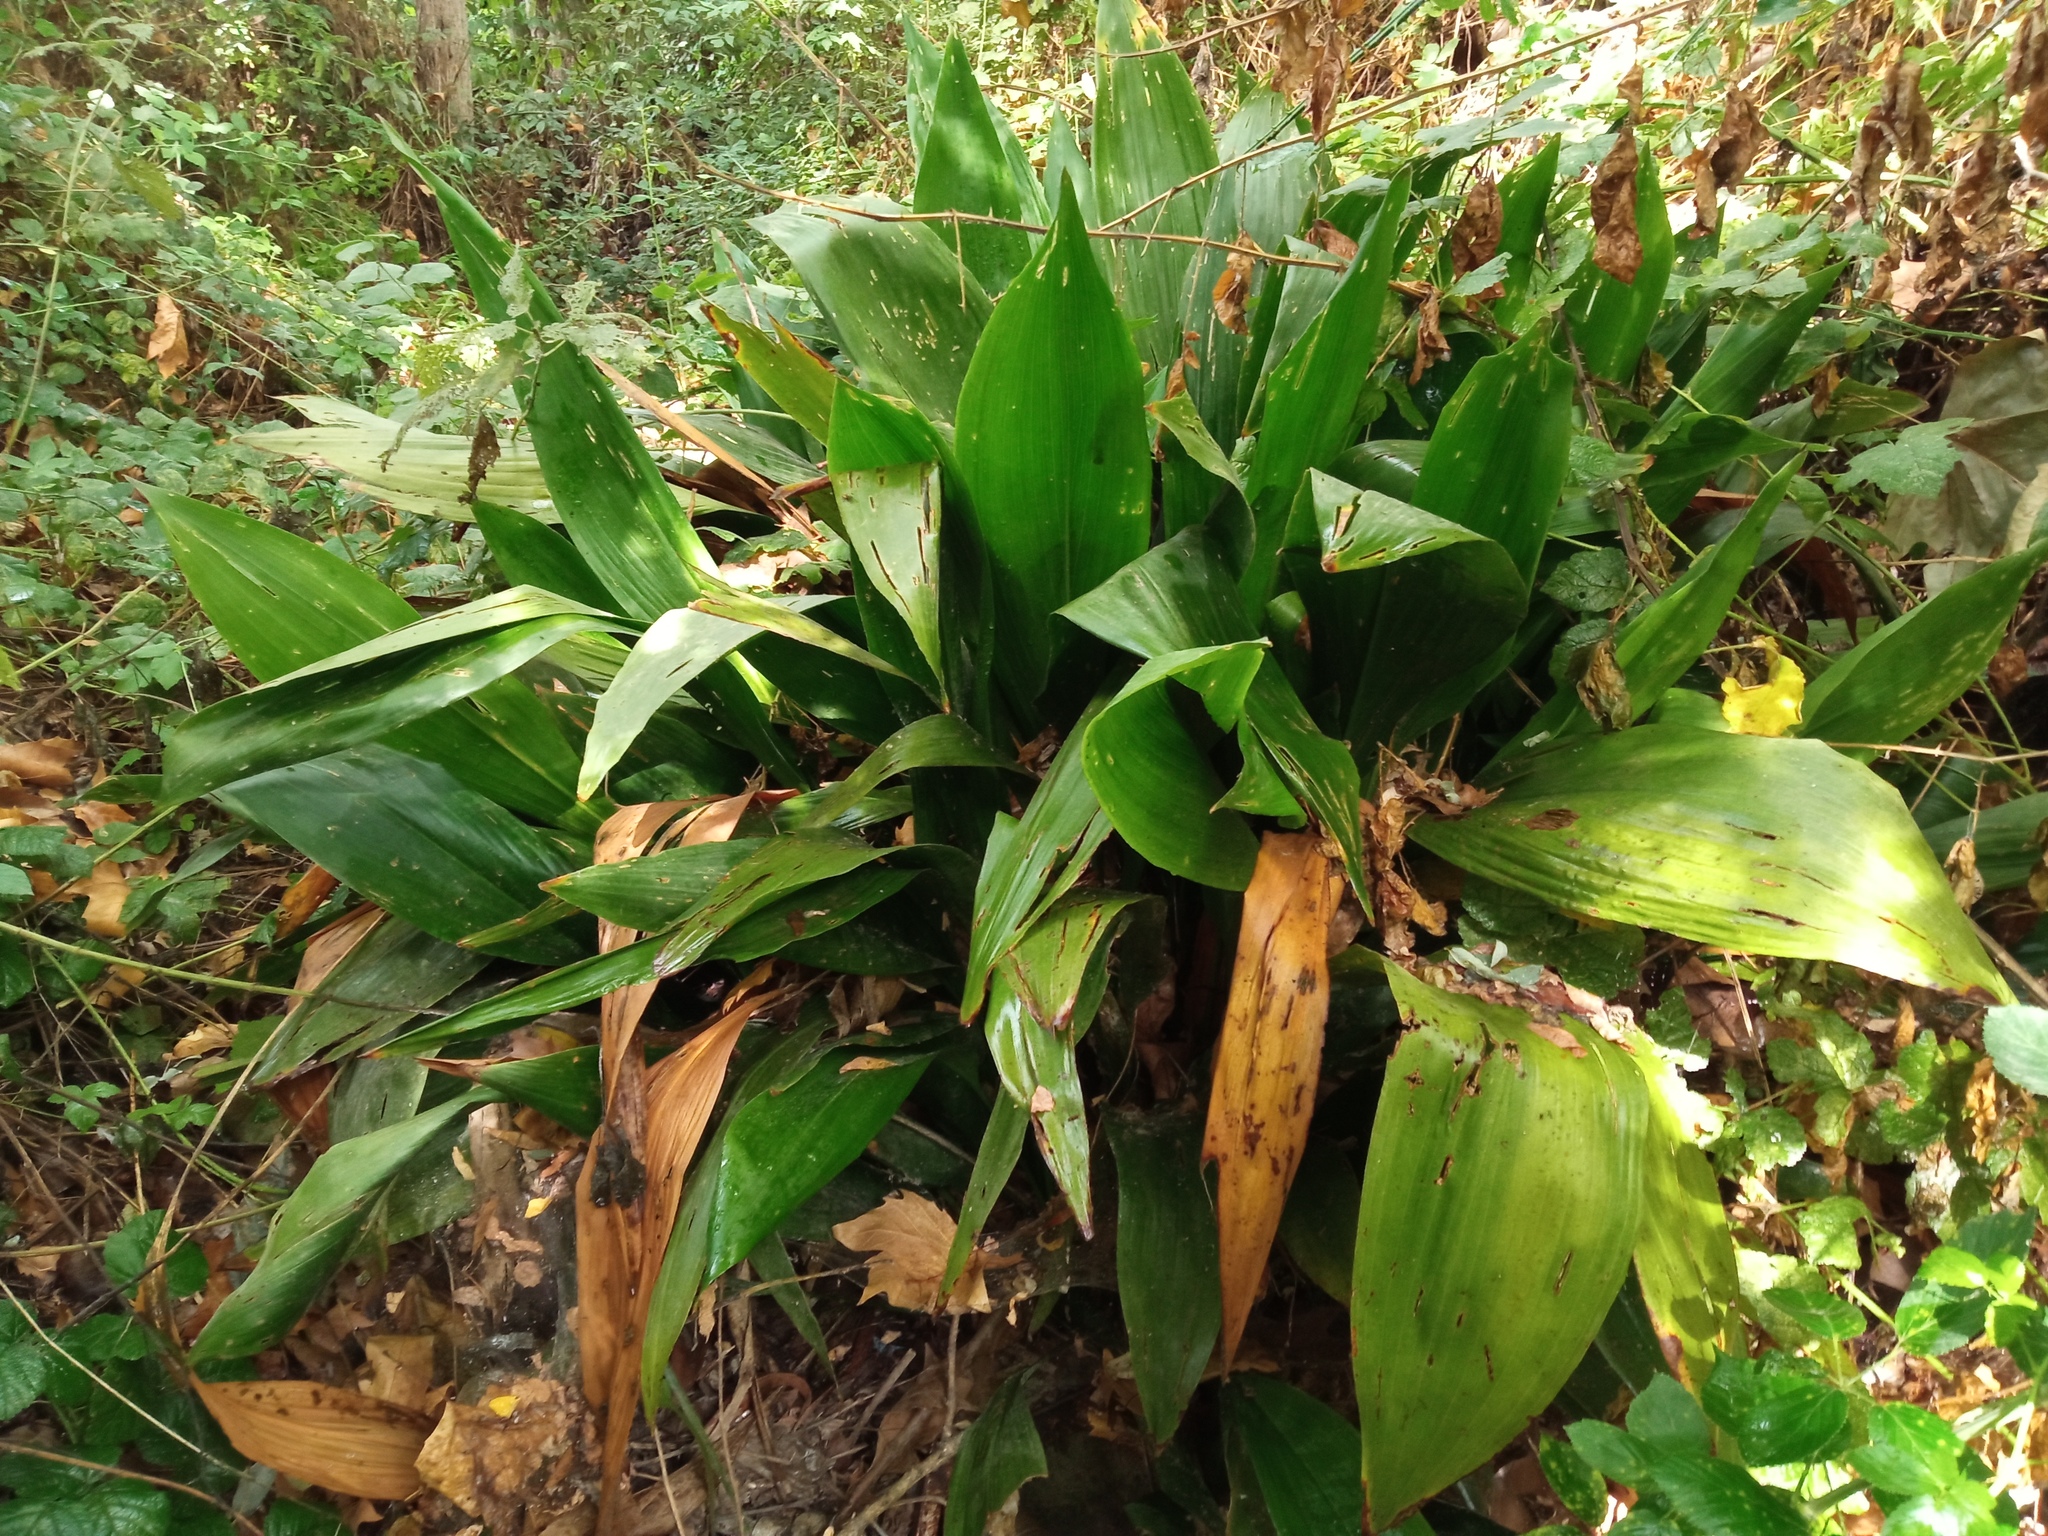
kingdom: Plantae
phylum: Tracheophyta
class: Liliopsida
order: Asparagales
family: Asparagaceae
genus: Aspidistra
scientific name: Aspidistra elatior
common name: Cast-iron-plant
